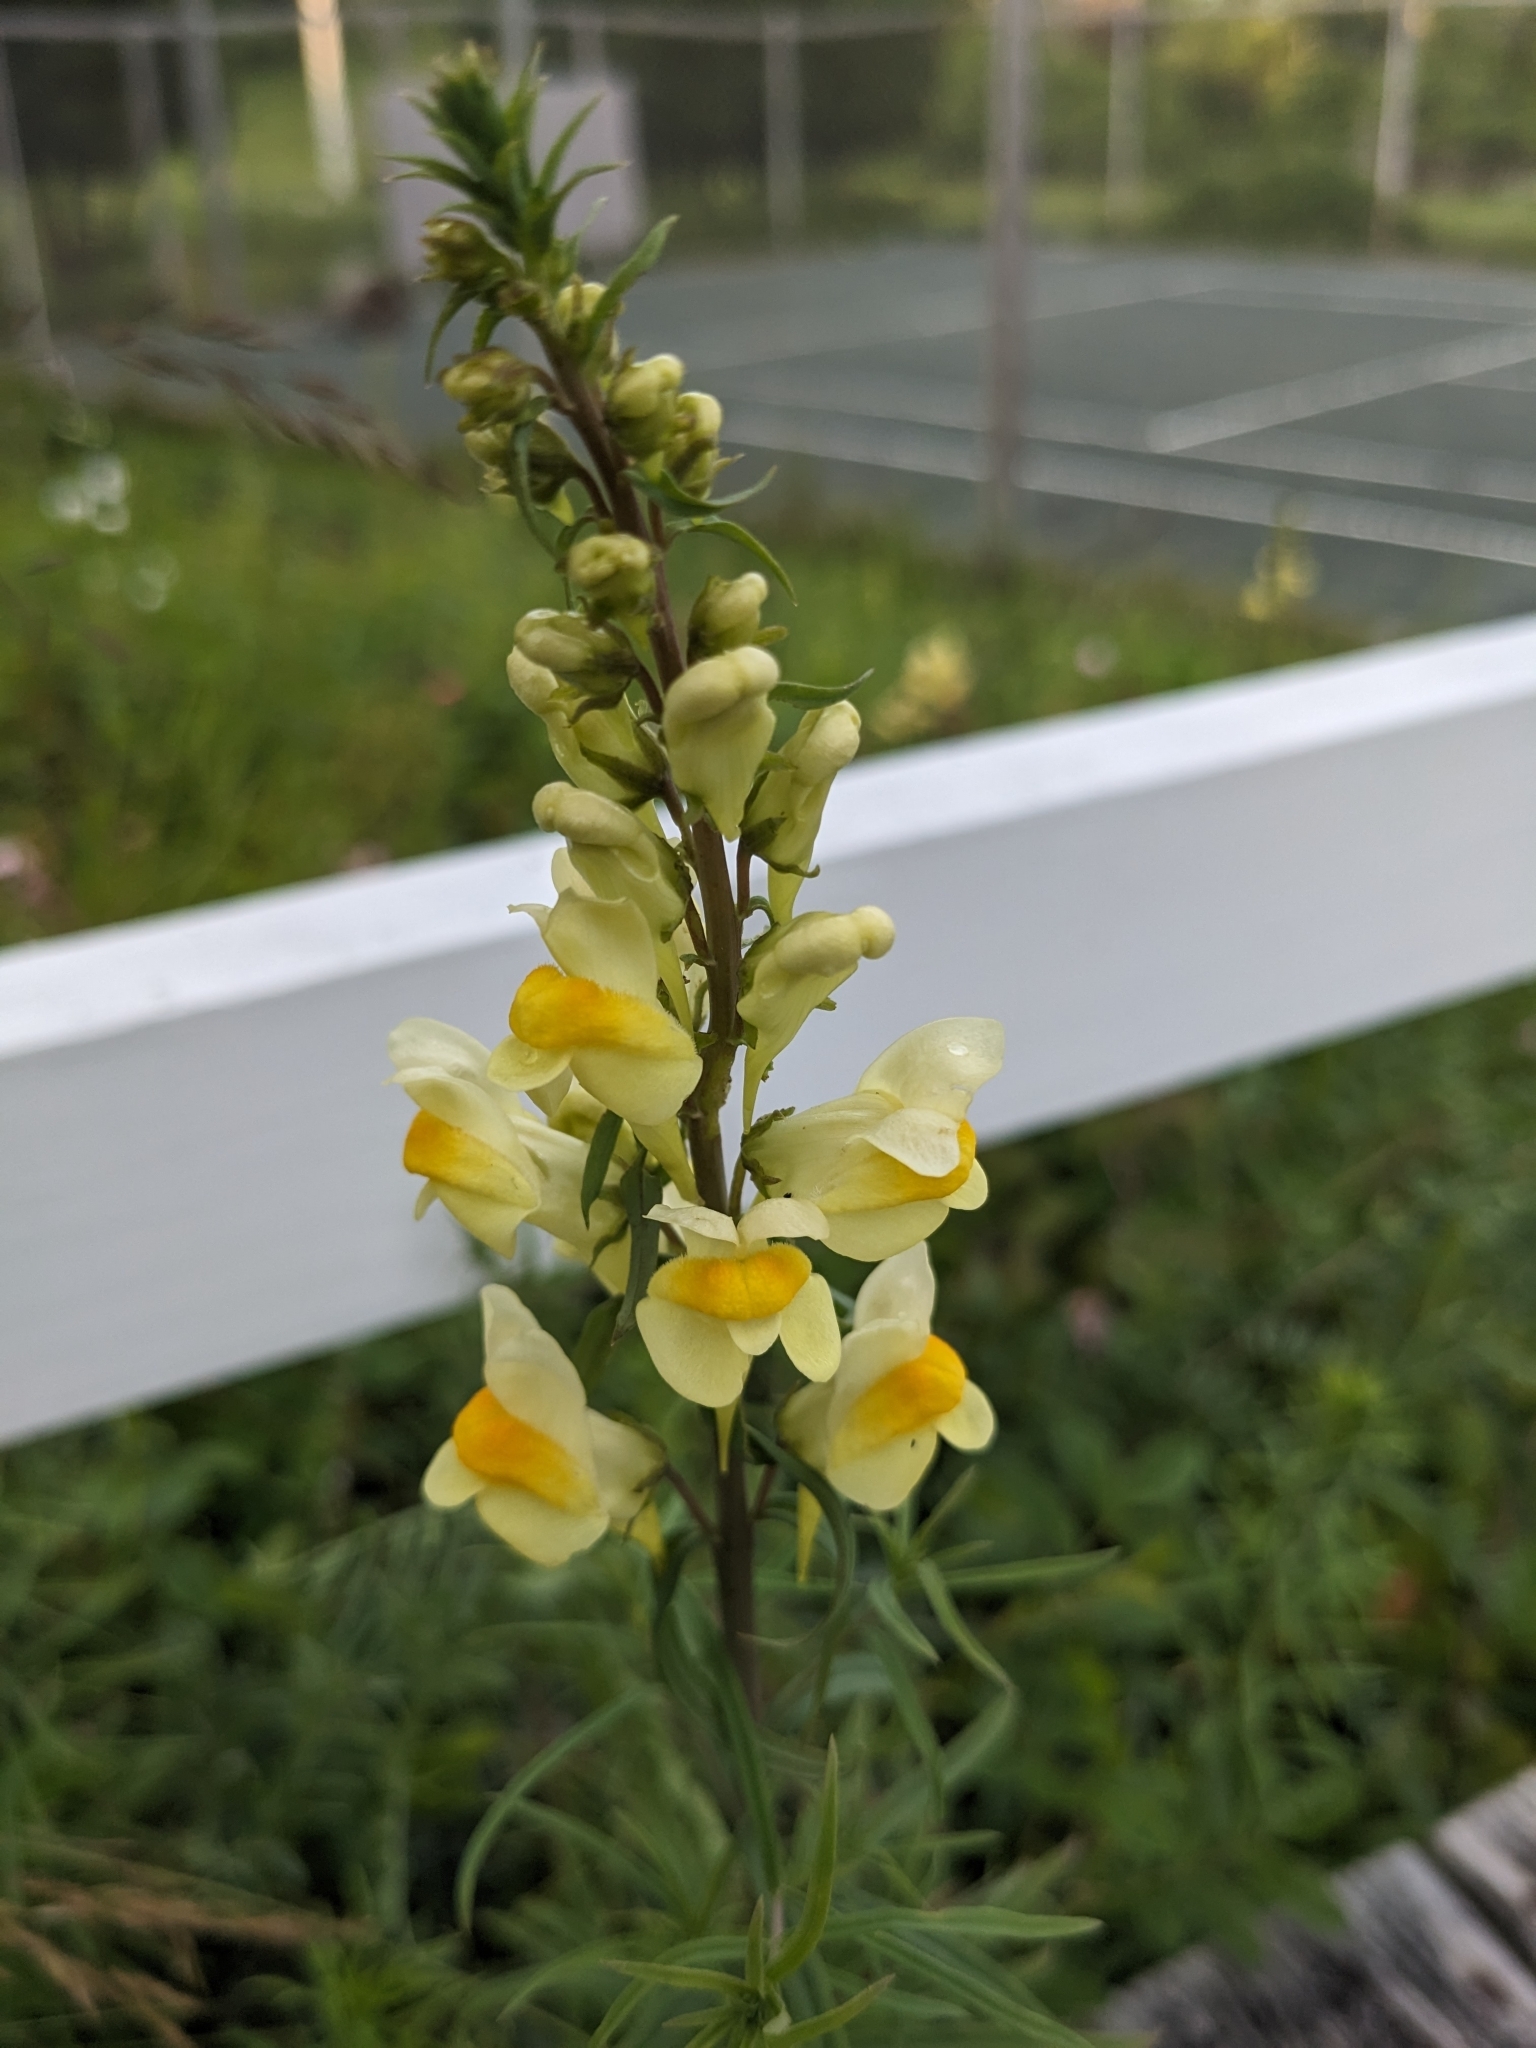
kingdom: Plantae
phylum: Tracheophyta
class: Magnoliopsida
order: Lamiales
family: Plantaginaceae
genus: Linaria
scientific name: Linaria vulgaris
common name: Butter and eggs
